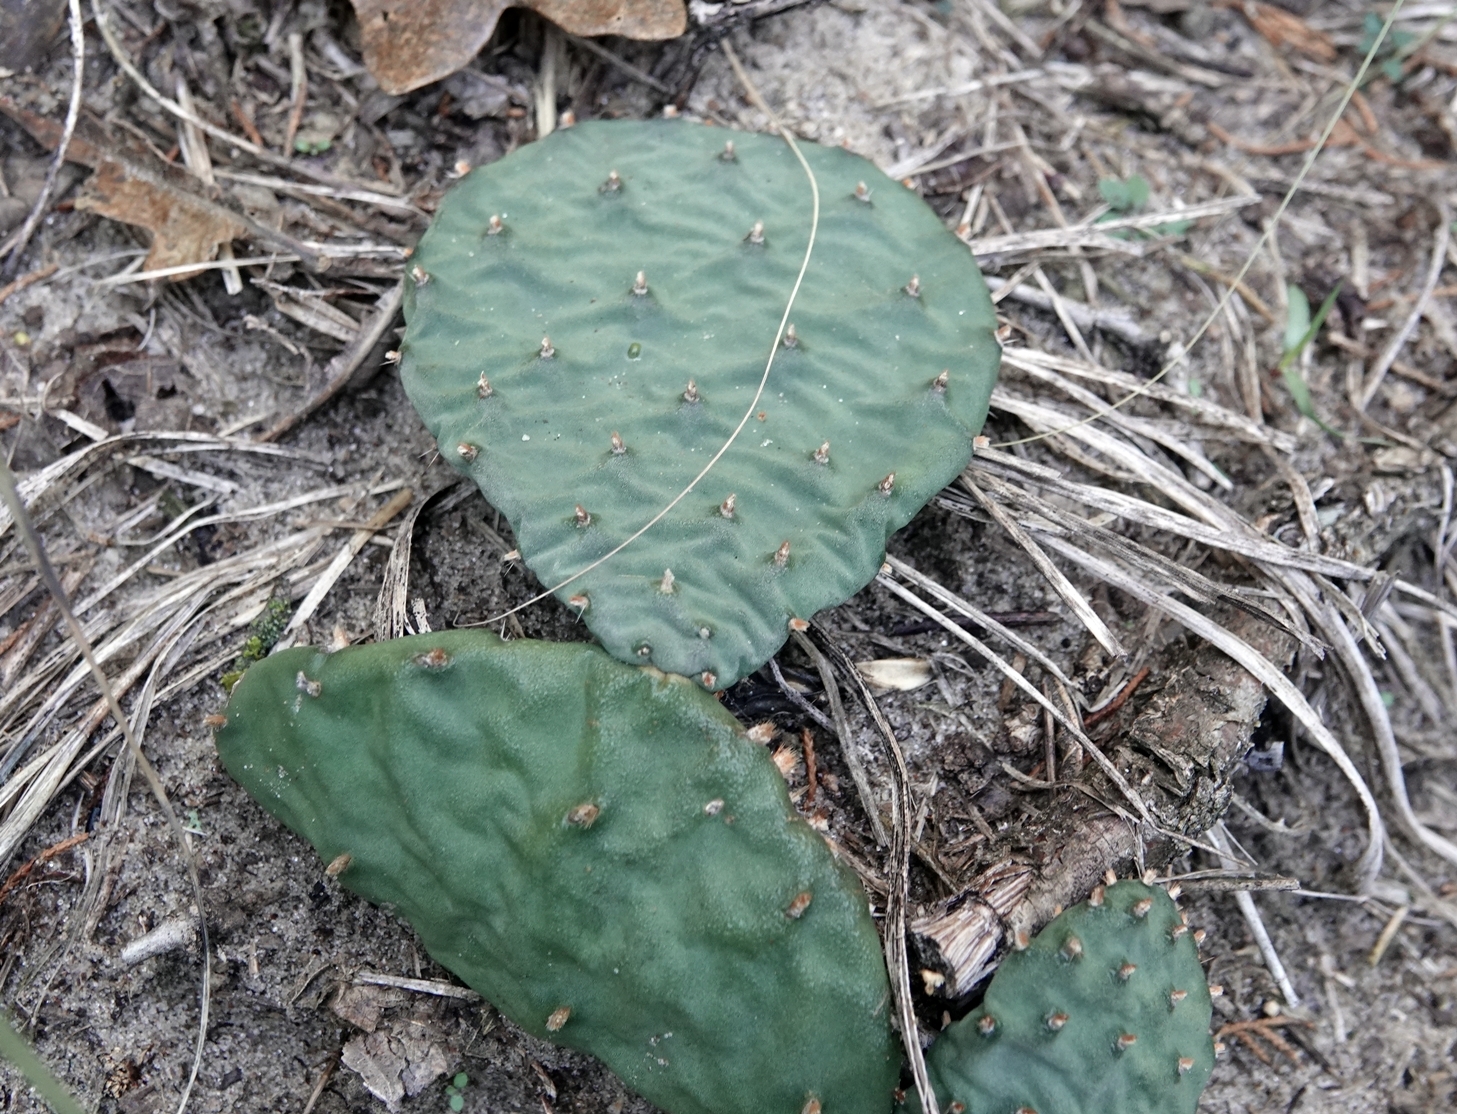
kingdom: Plantae
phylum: Tracheophyta
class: Magnoliopsida
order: Caryophyllales
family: Cactaceae
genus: Opuntia
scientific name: Opuntia macrorhiza
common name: Grassland pricklypear
